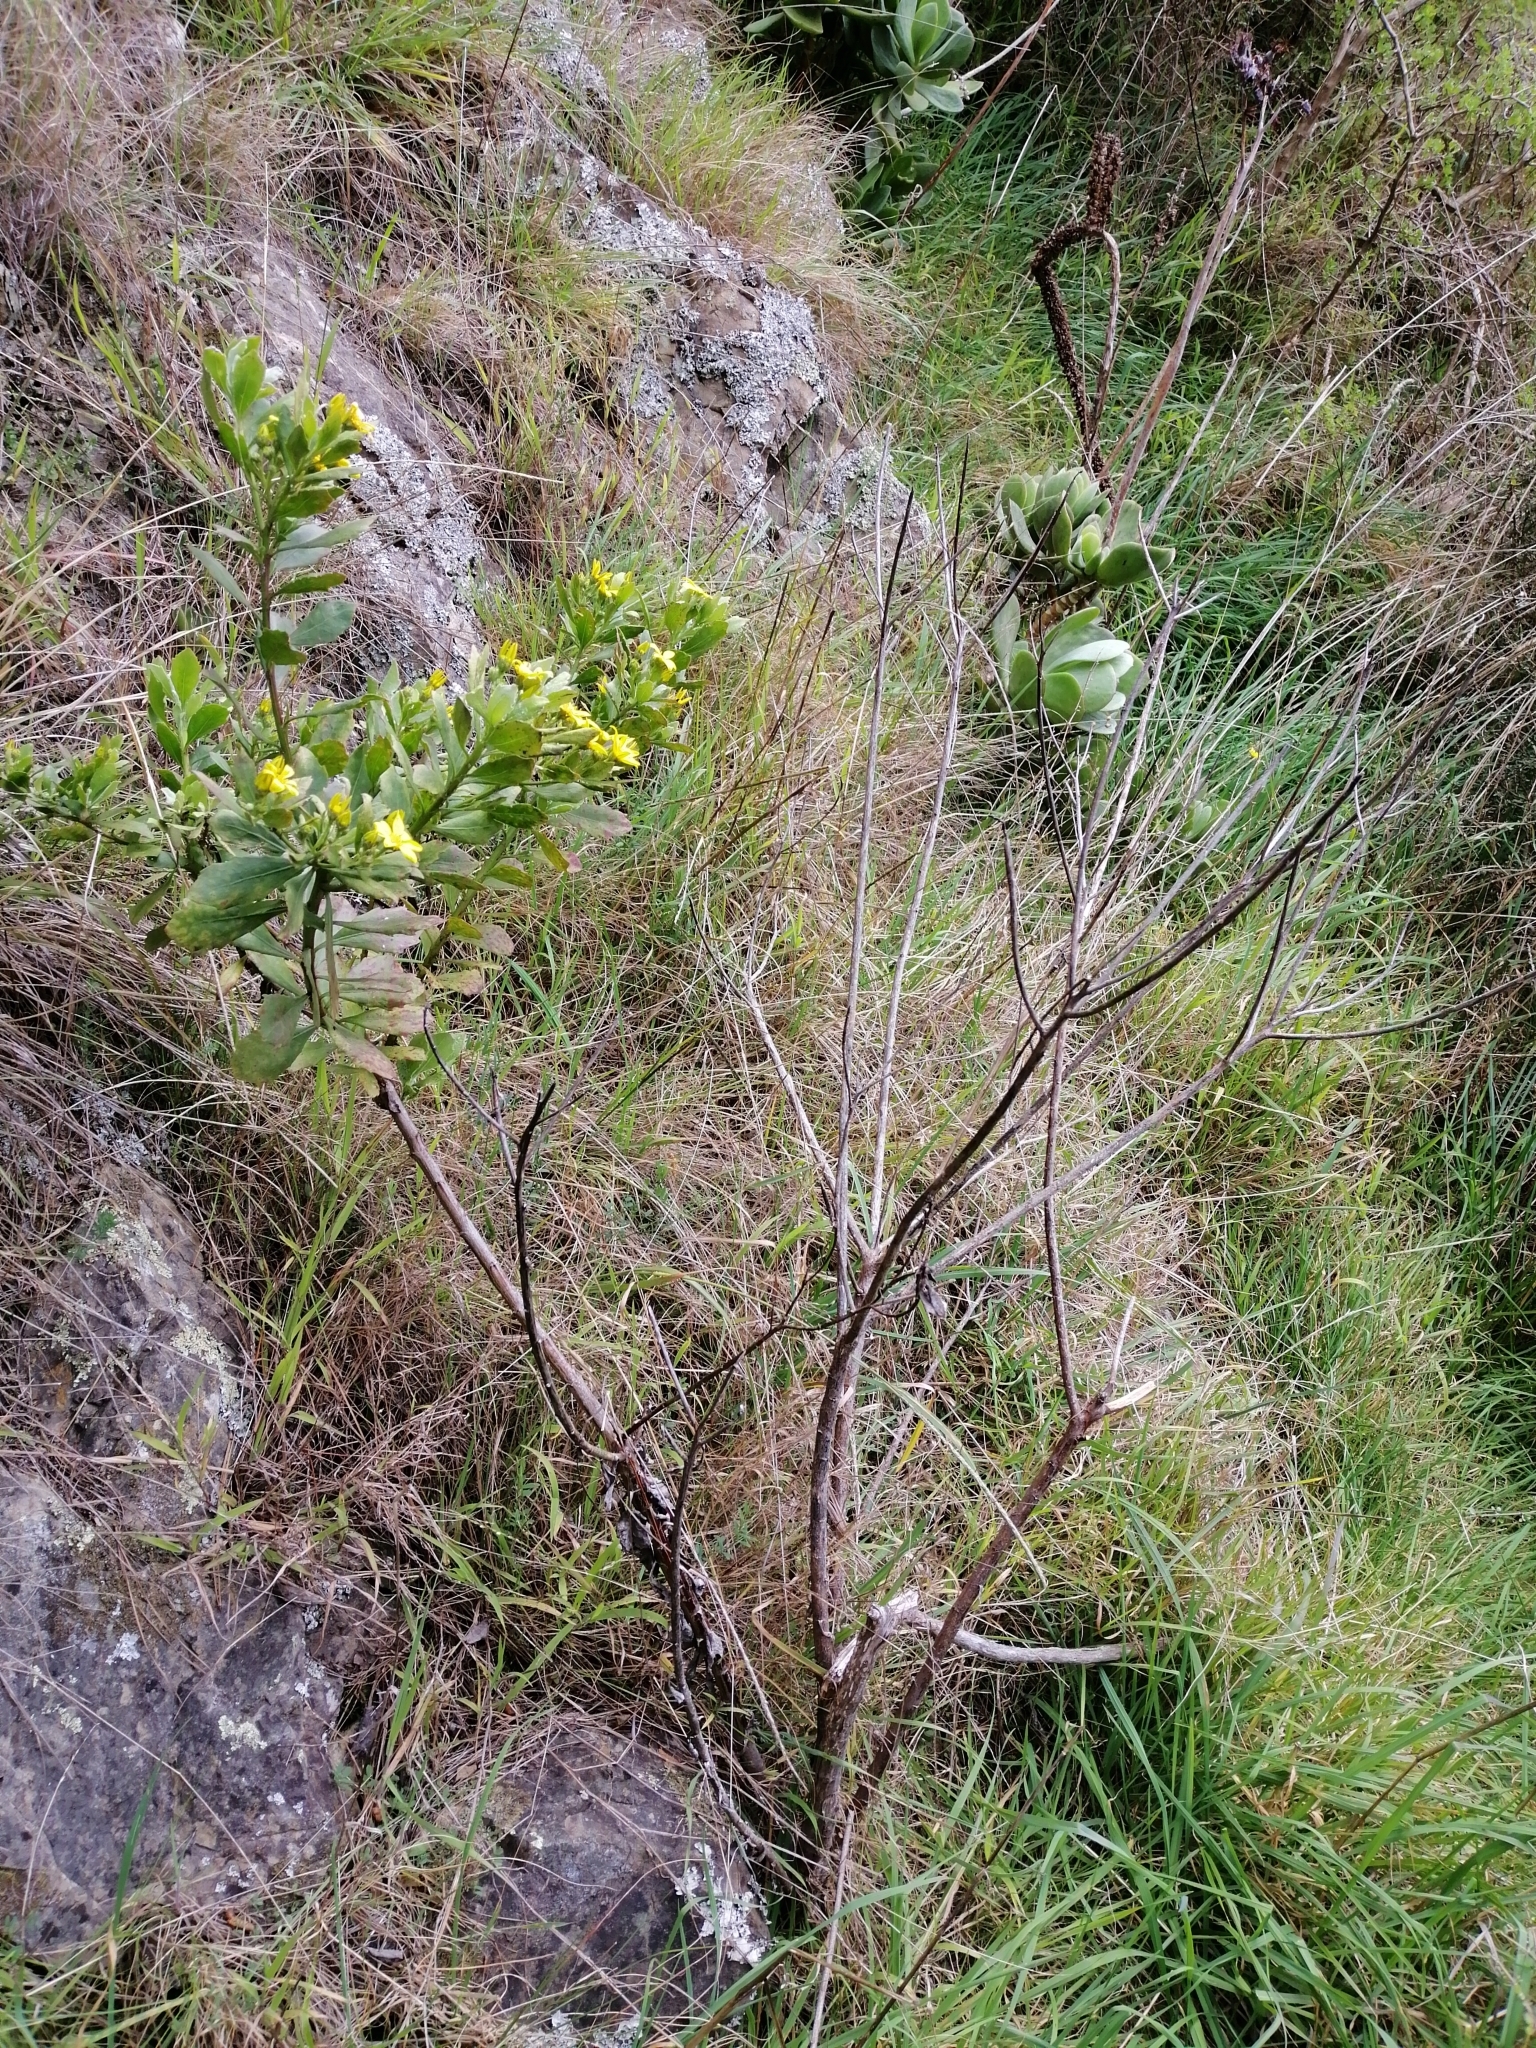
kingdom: Plantae
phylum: Tracheophyta
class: Magnoliopsida
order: Asterales
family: Asteraceae
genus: Osteospermum
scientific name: Osteospermum moniliferum
